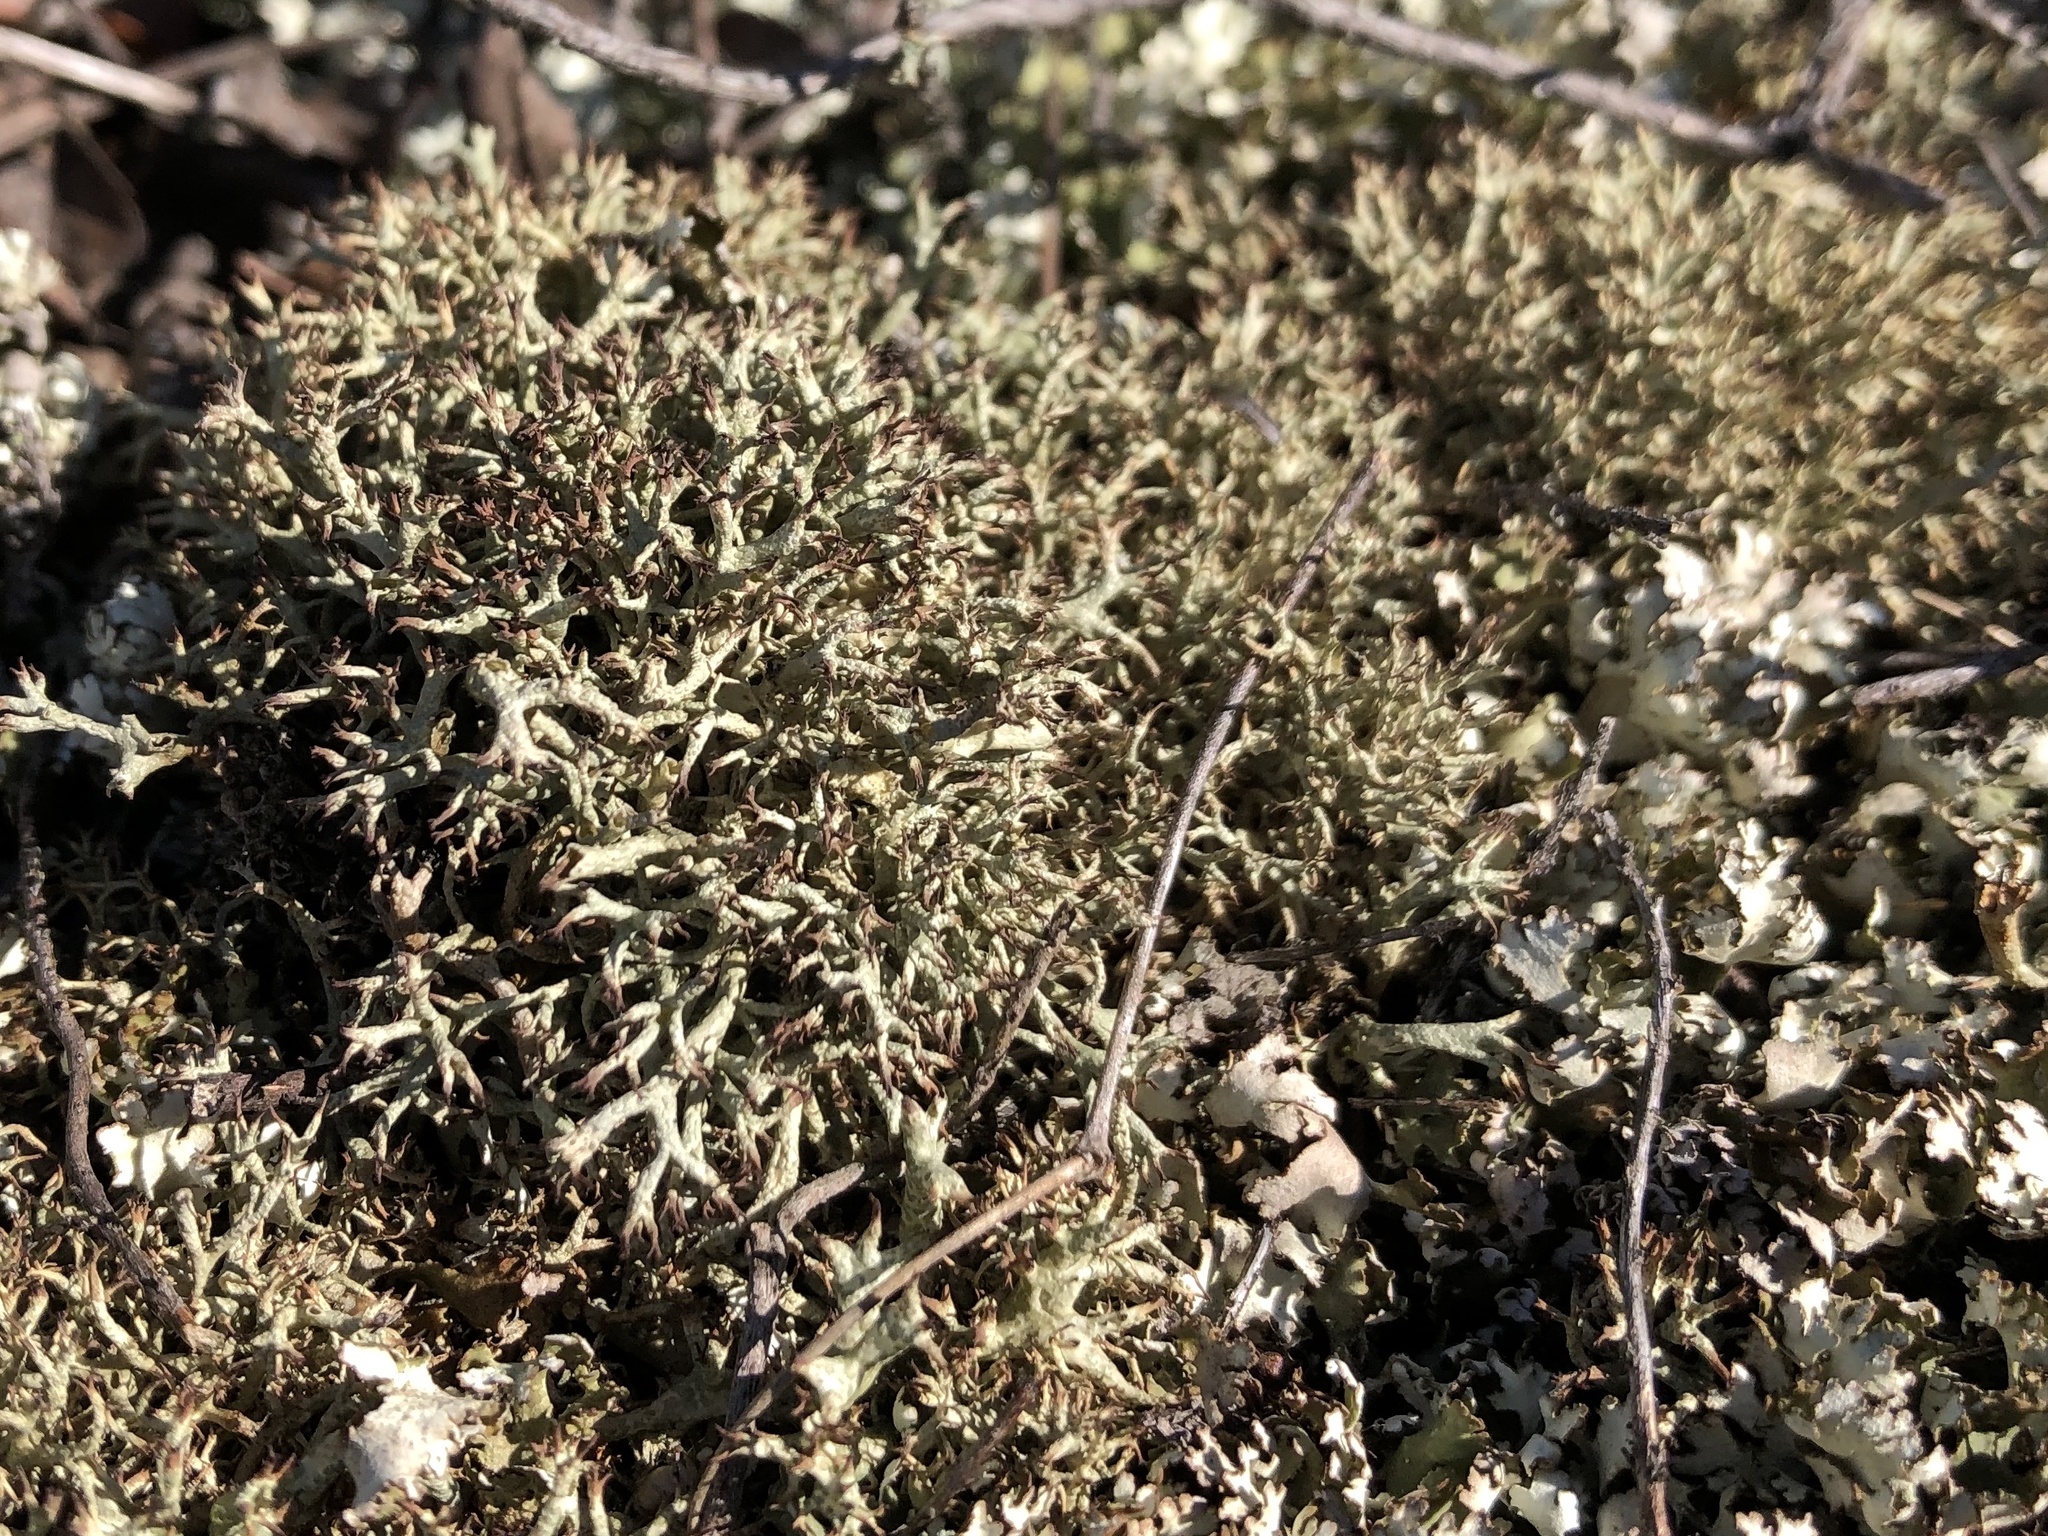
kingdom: Fungi
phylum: Ascomycota
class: Lecanoromycetes
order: Lecanorales
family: Cladoniaceae
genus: Cladonia
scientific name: Cladonia uncialis
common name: Thorn lichen
